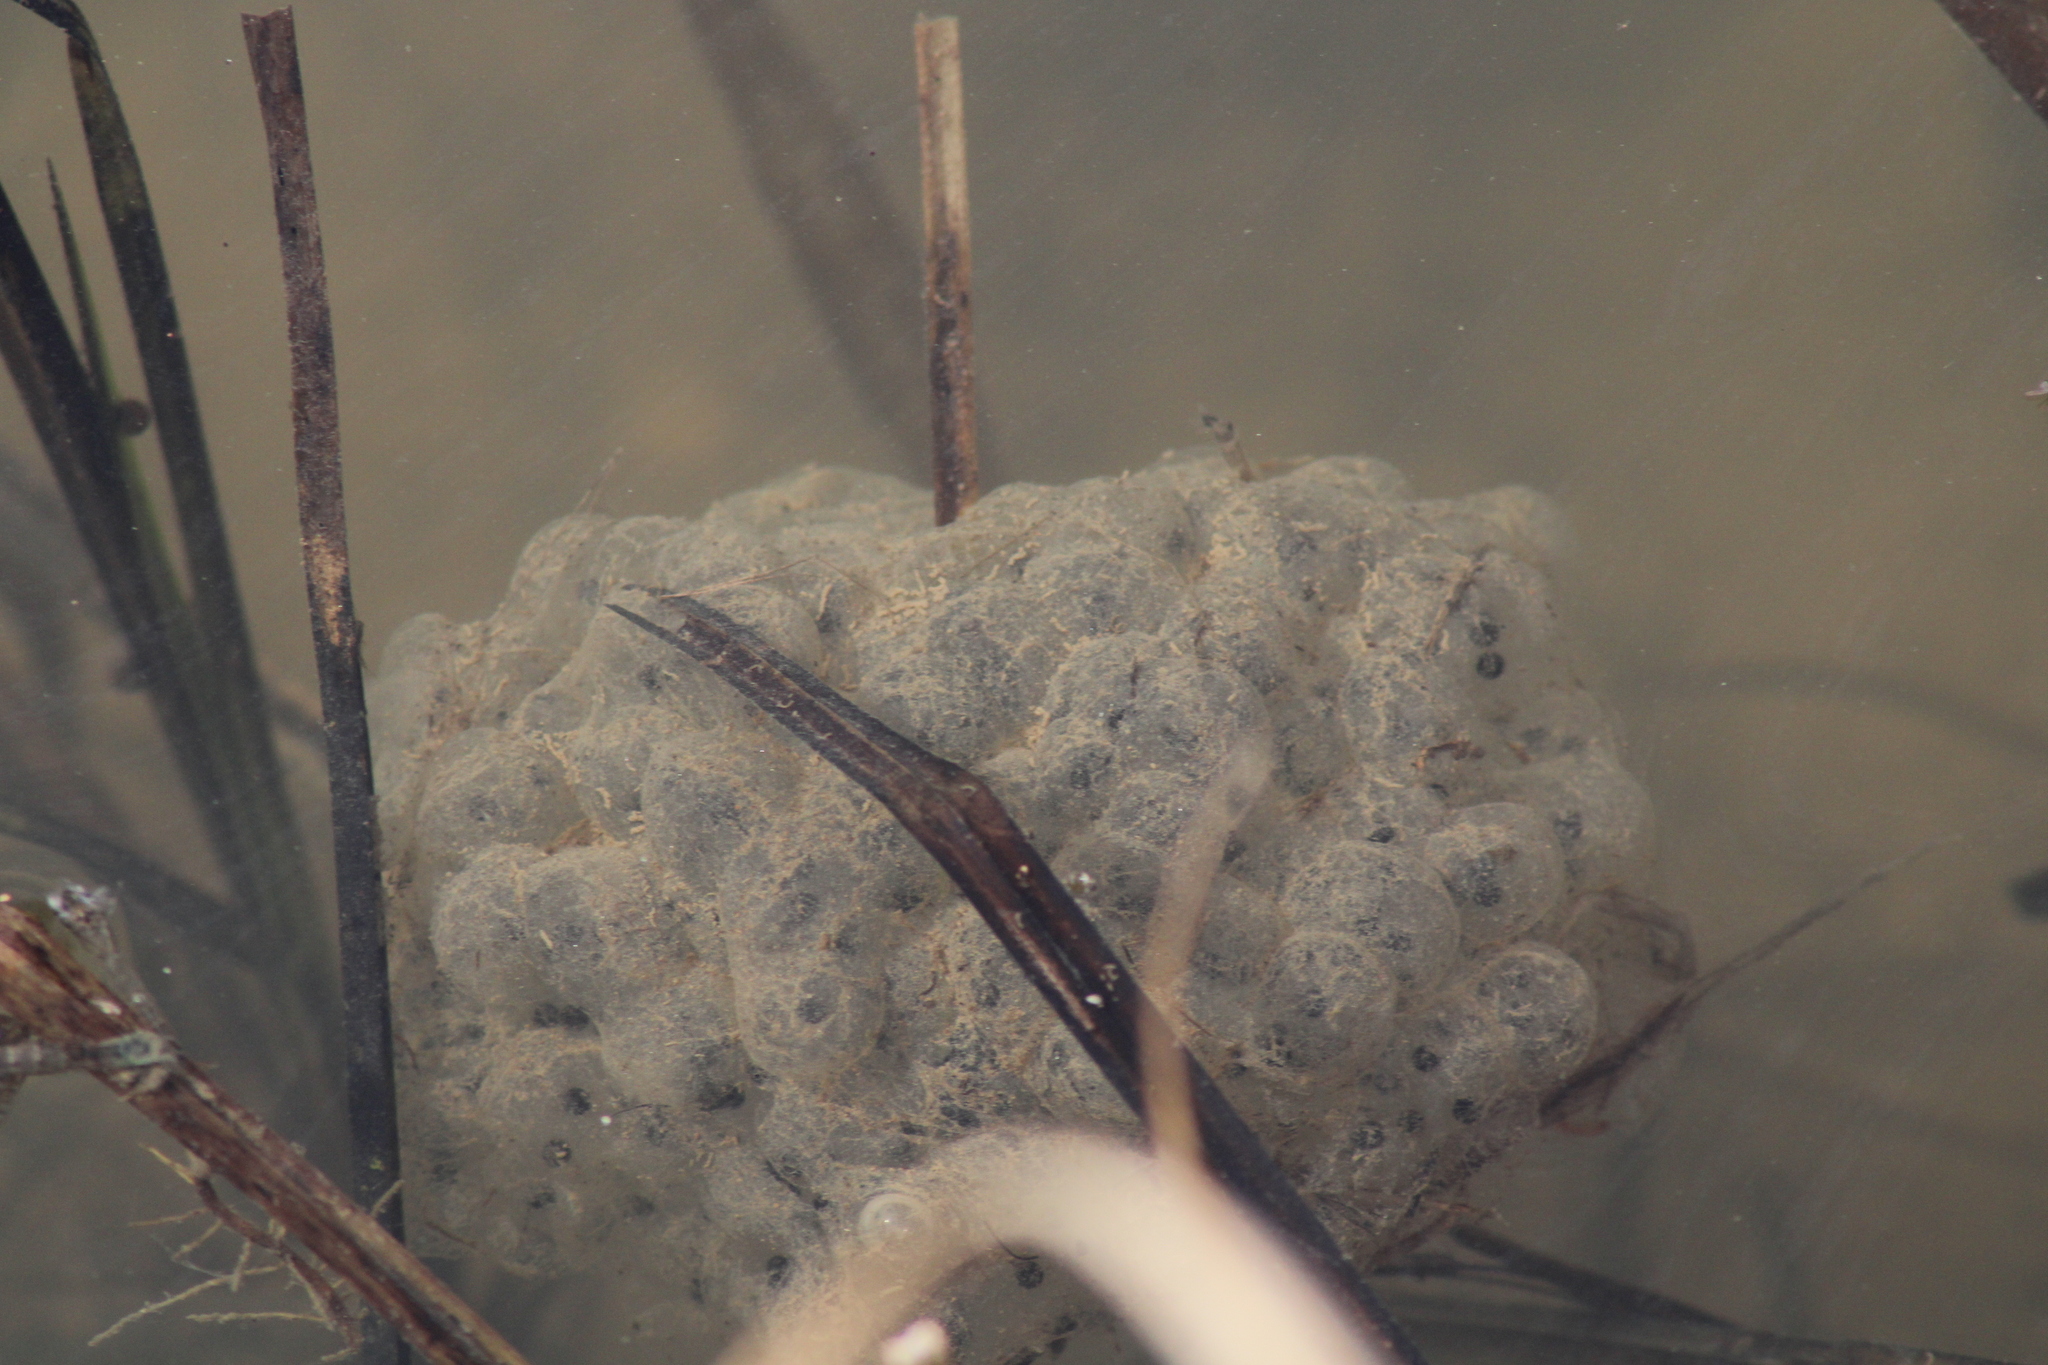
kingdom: Animalia
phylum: Chordata
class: Amphibia
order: Anura
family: Ranidae
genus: Rana
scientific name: Rana dalmatina
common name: Agile frog
